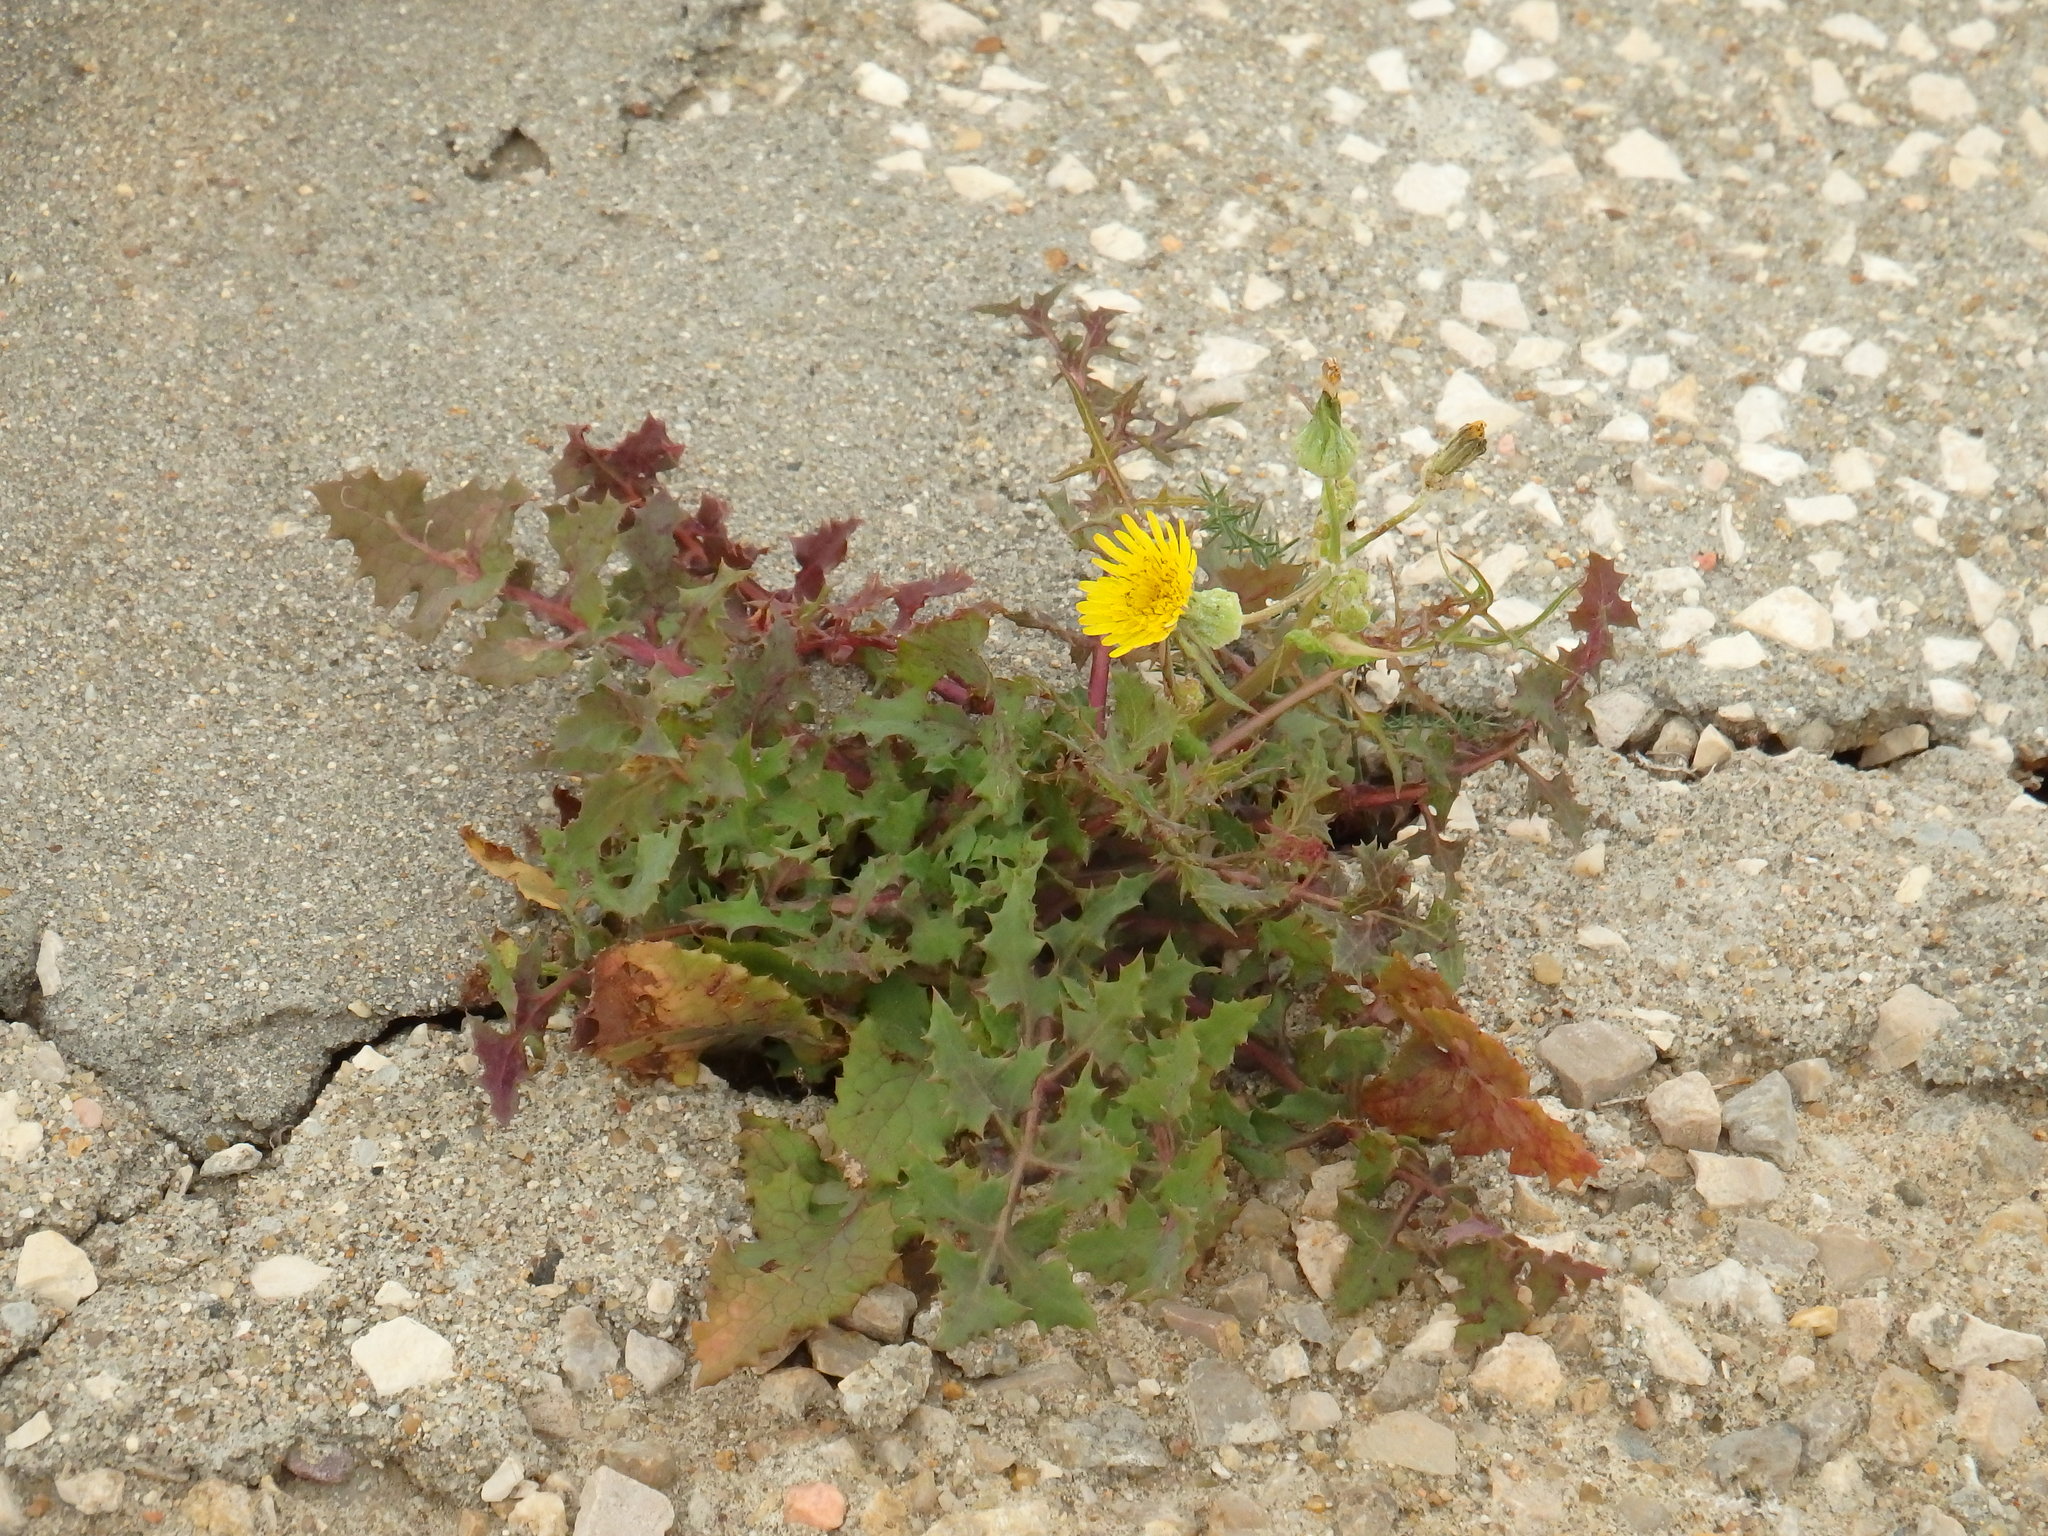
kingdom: Plantae
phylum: Tracheophyta
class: Magnoliopsida
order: Asterales
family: Asteraceae
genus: Sonchus
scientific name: Sonchus tenerrimus
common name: Clammy sowthistle
